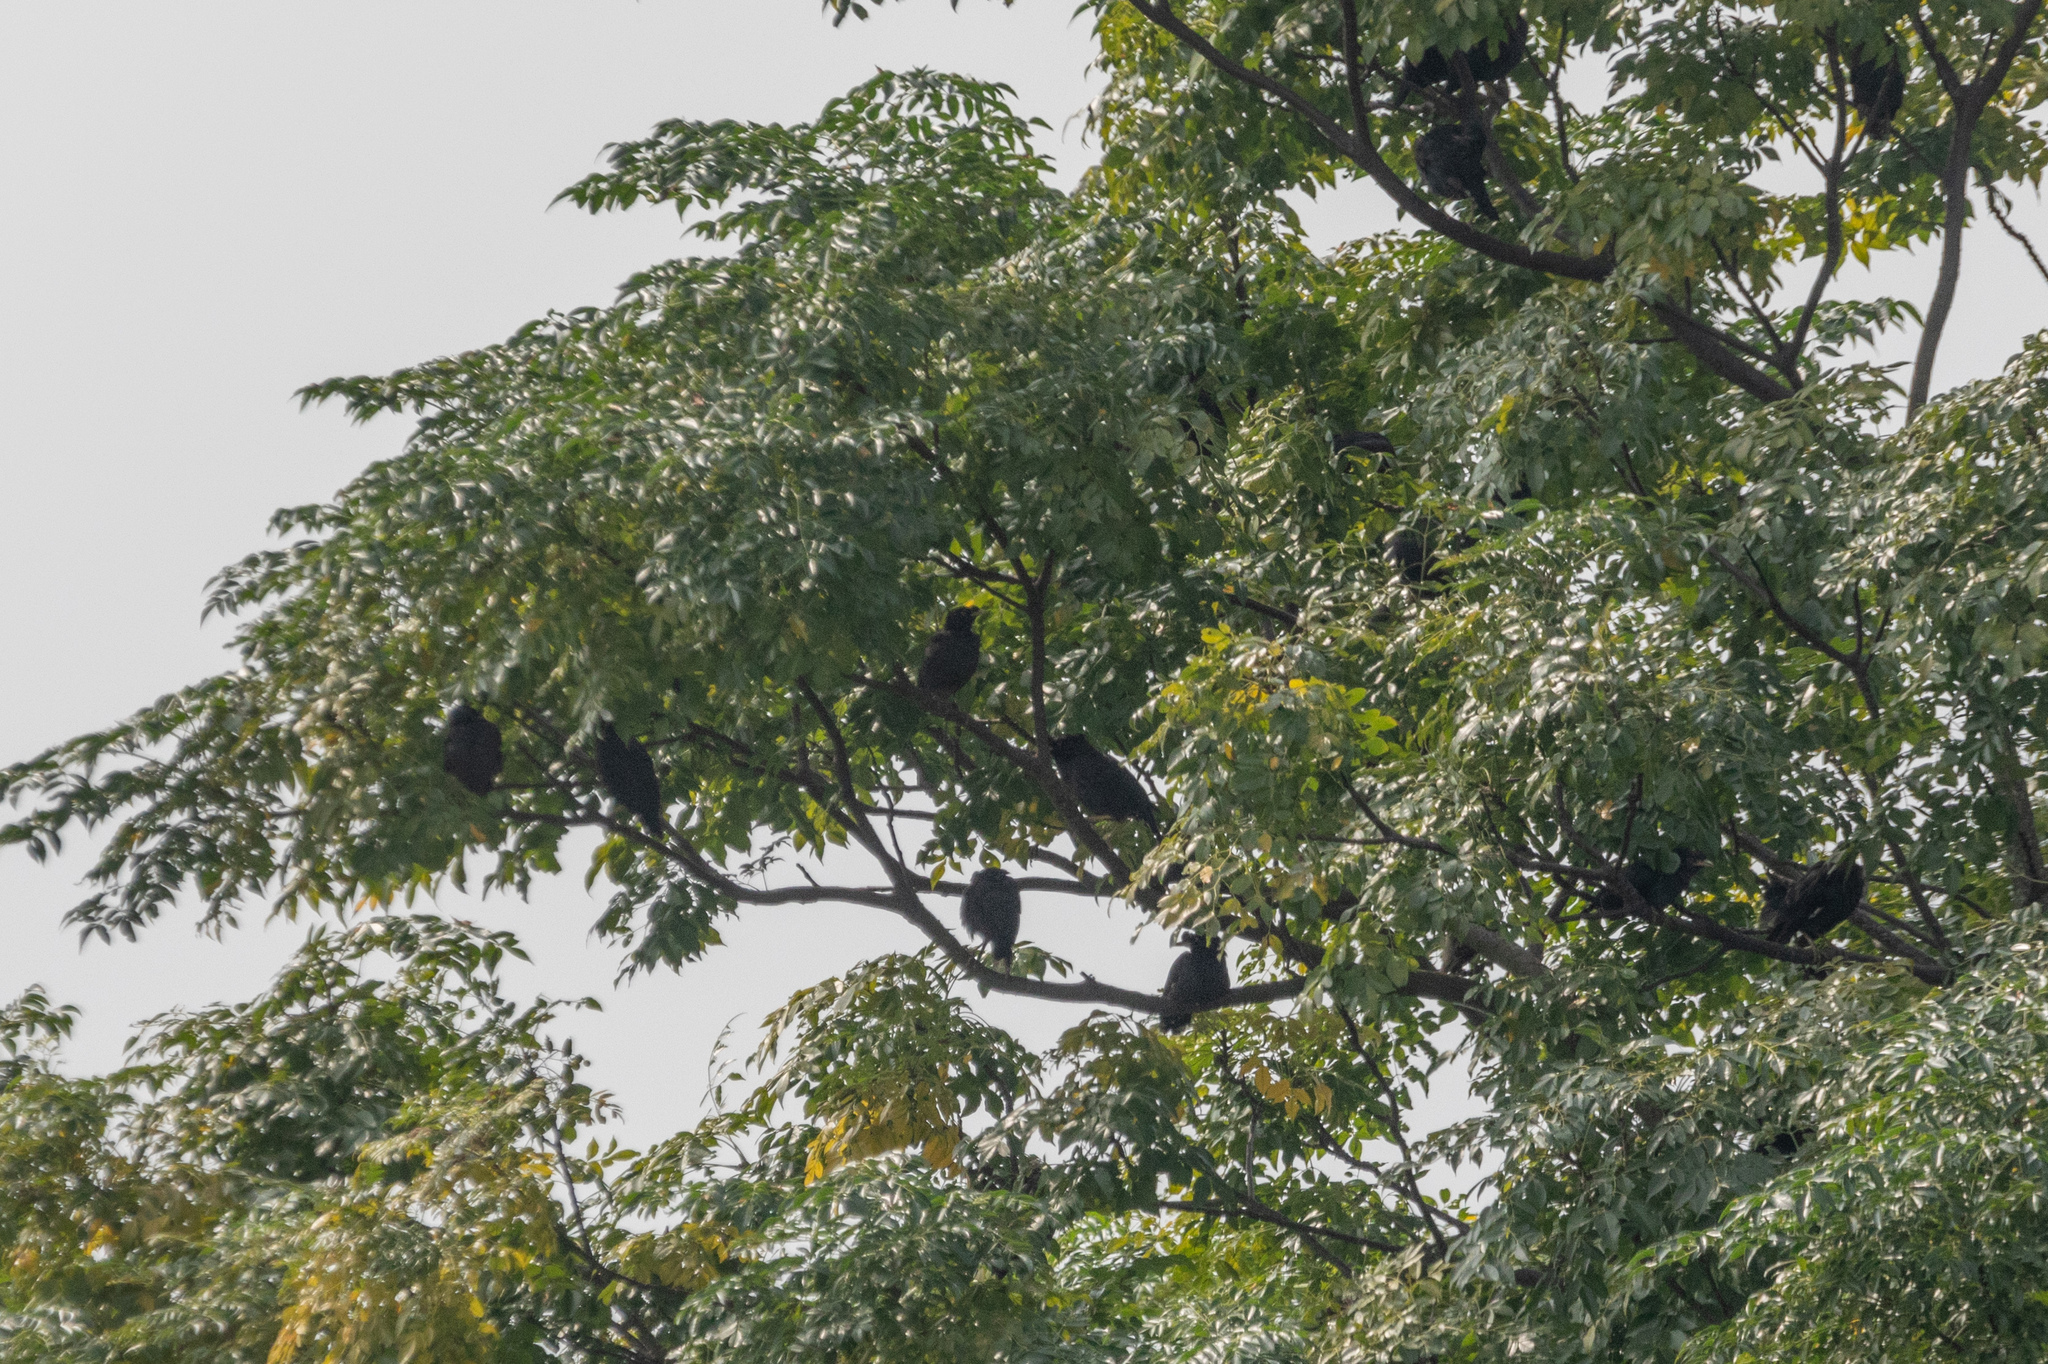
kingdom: Animalia
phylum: Chordata
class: Aves
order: Passeriformes
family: Sturnidae
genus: Acridotheres
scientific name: Acridotheres cristatellus
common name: Crested myna
